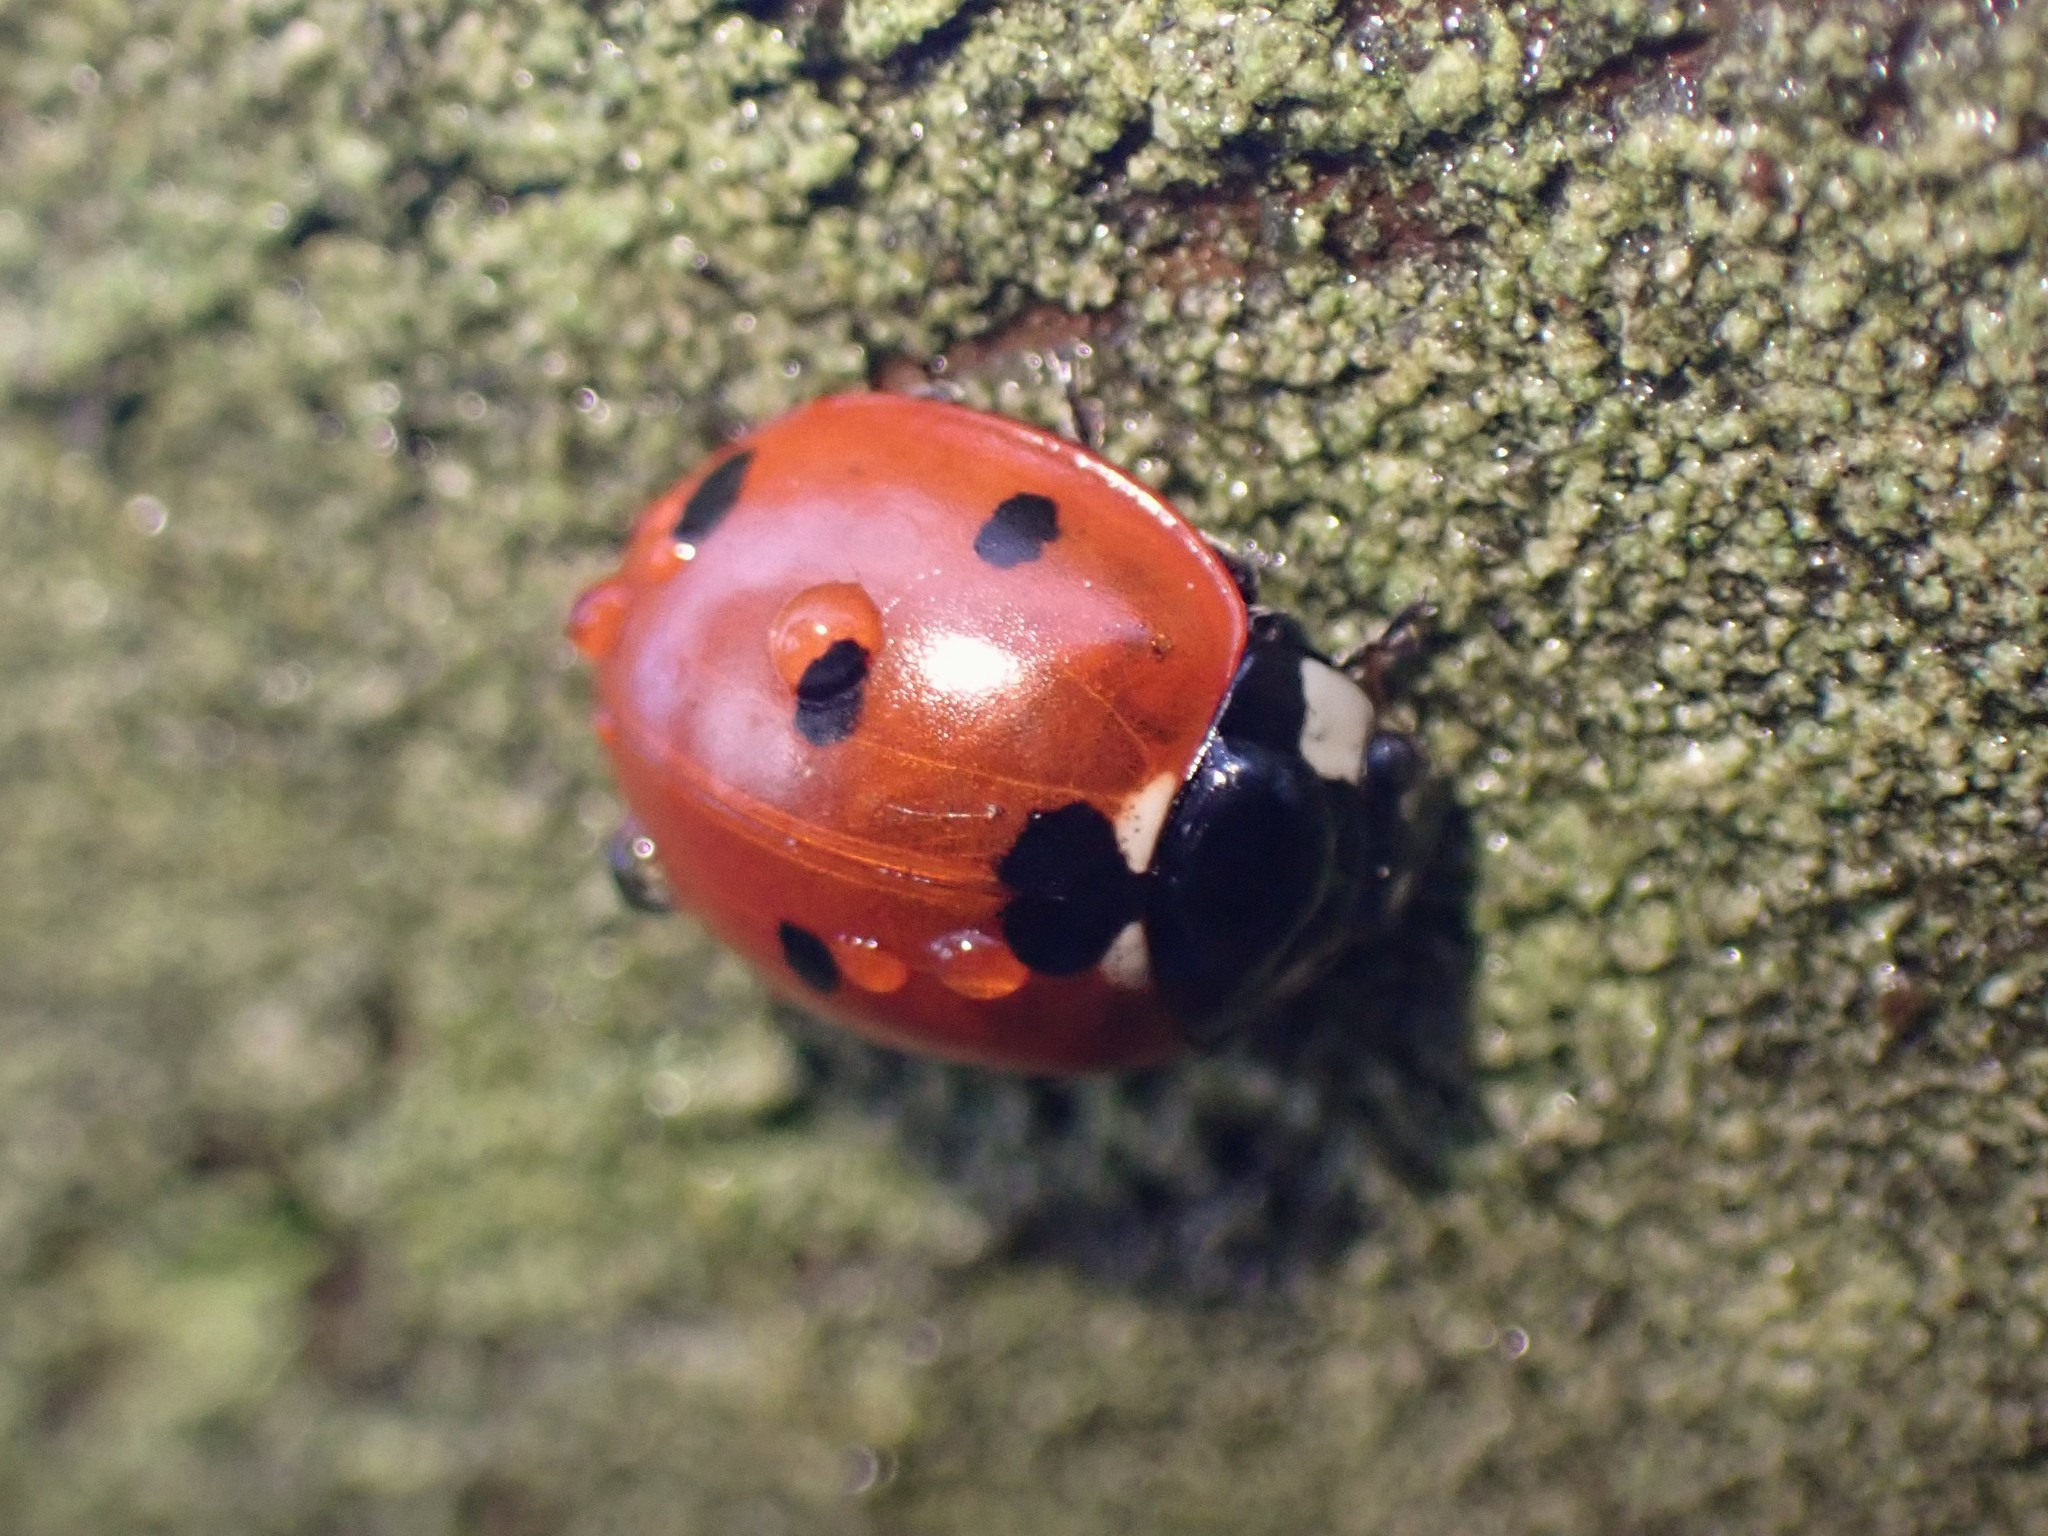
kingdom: Animalia
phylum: Arthropoda
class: Insecta
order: Coleoptera
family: Coccinellidae
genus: Coccinella
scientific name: Coccinella septempunctata
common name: Sevenspotted lady beetle
